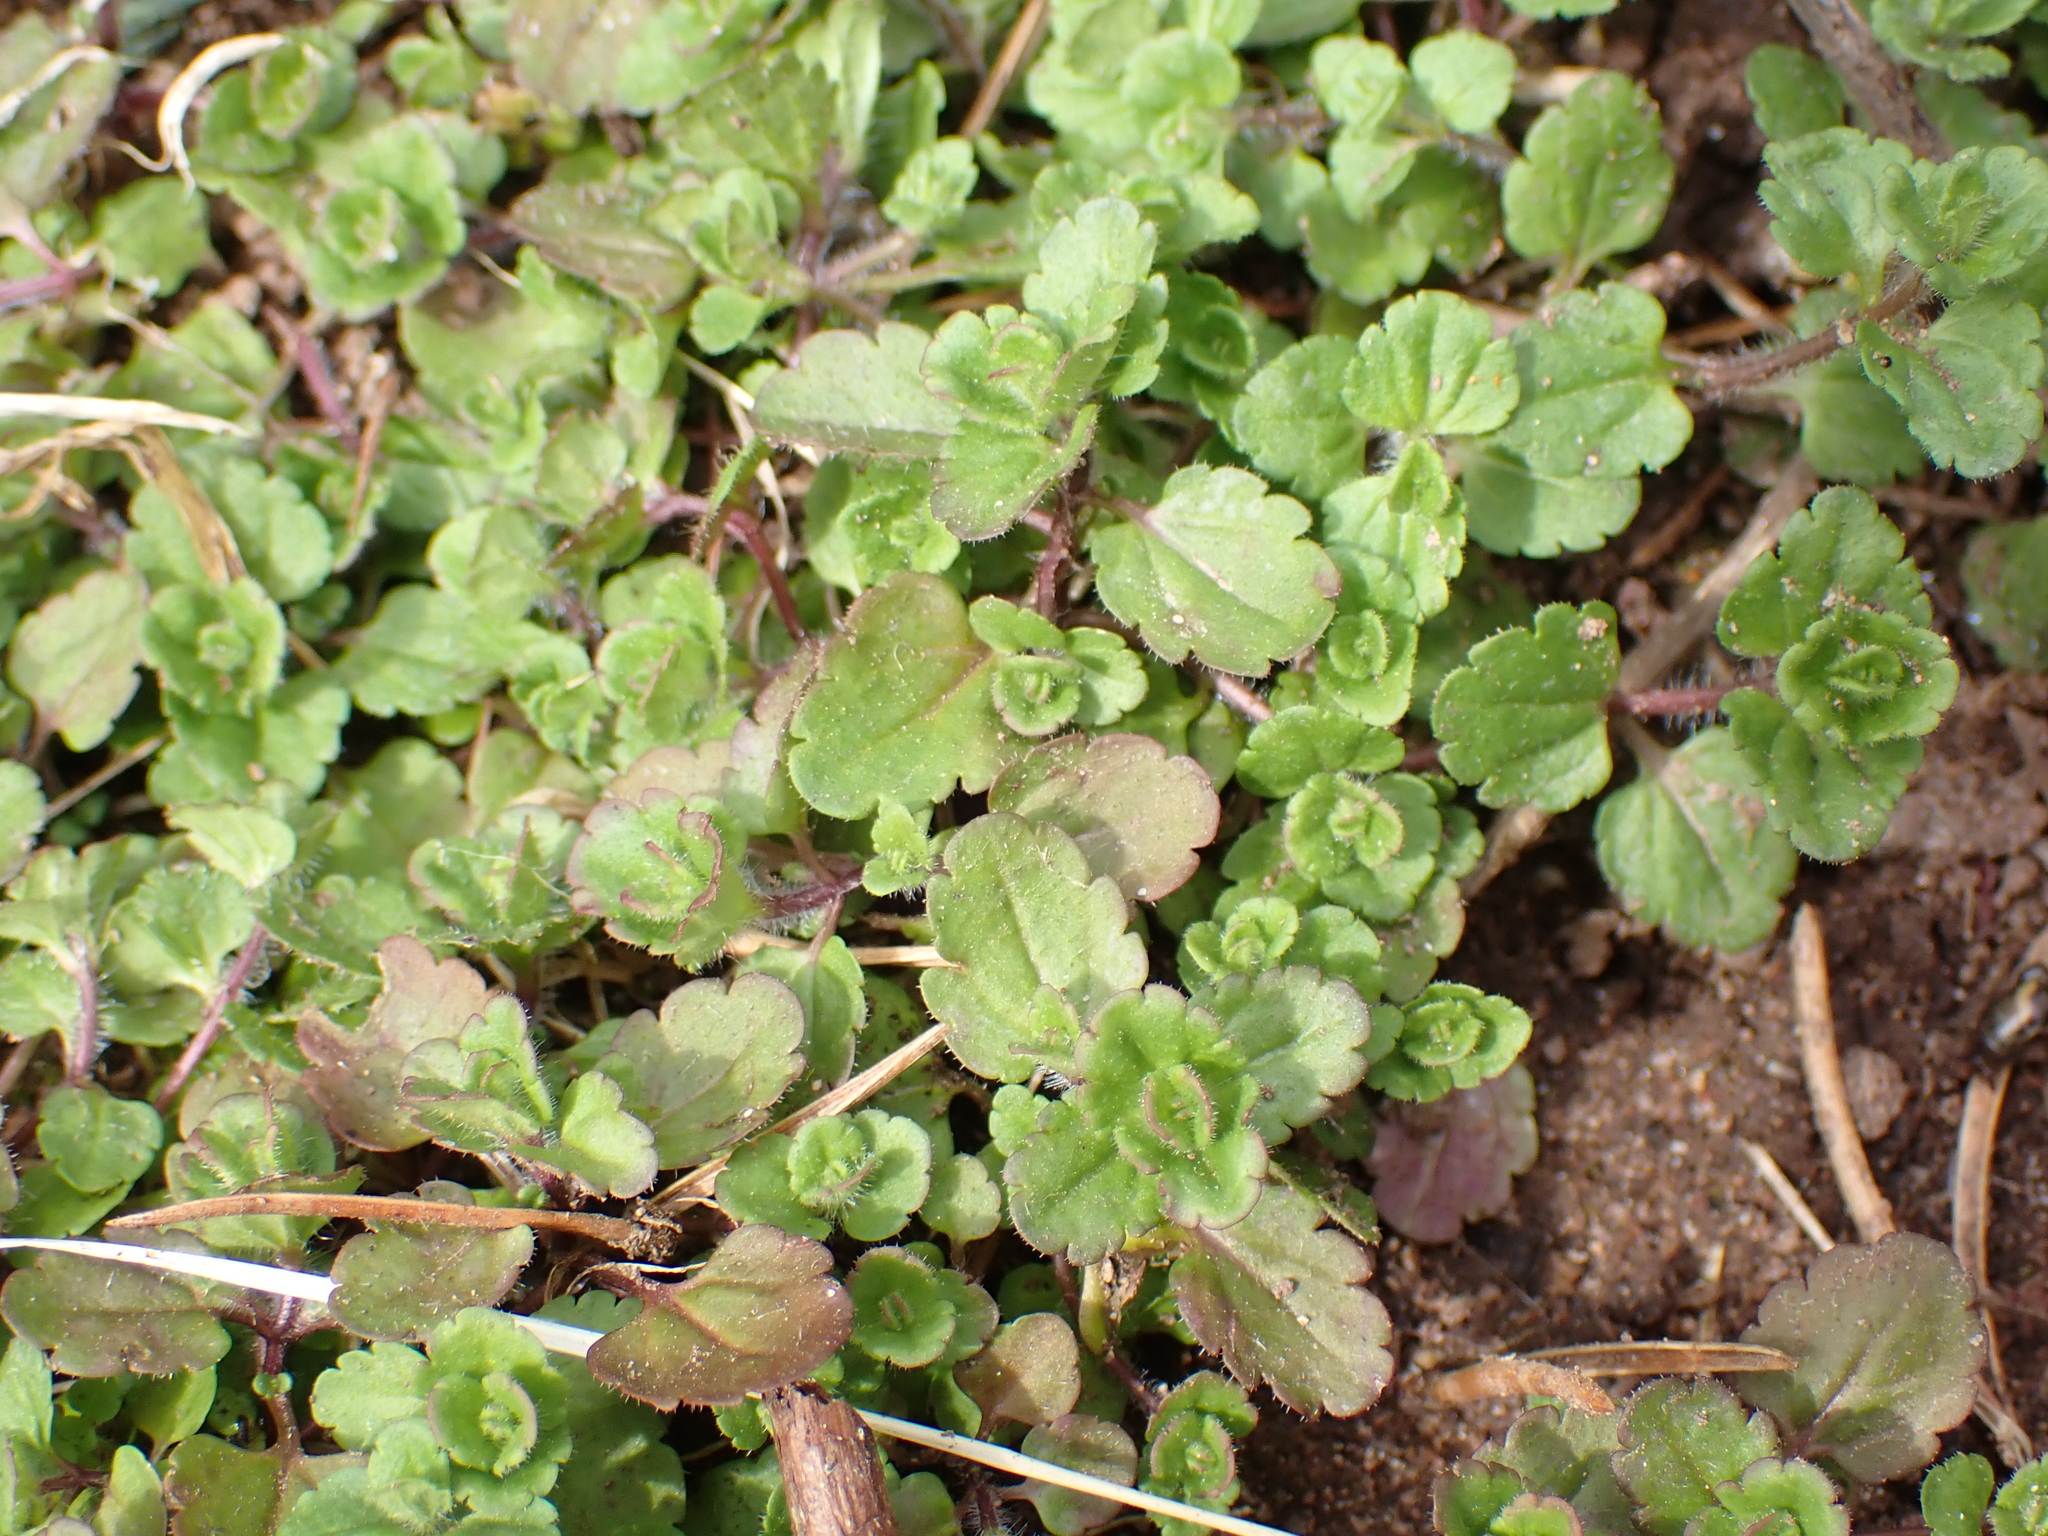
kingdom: Plantae
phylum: Tracheophyta
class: Magnoliopsida
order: Lamiales
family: Plantaginaceae
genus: Veronica
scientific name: Veronica arvensis
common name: Corn speedwell
